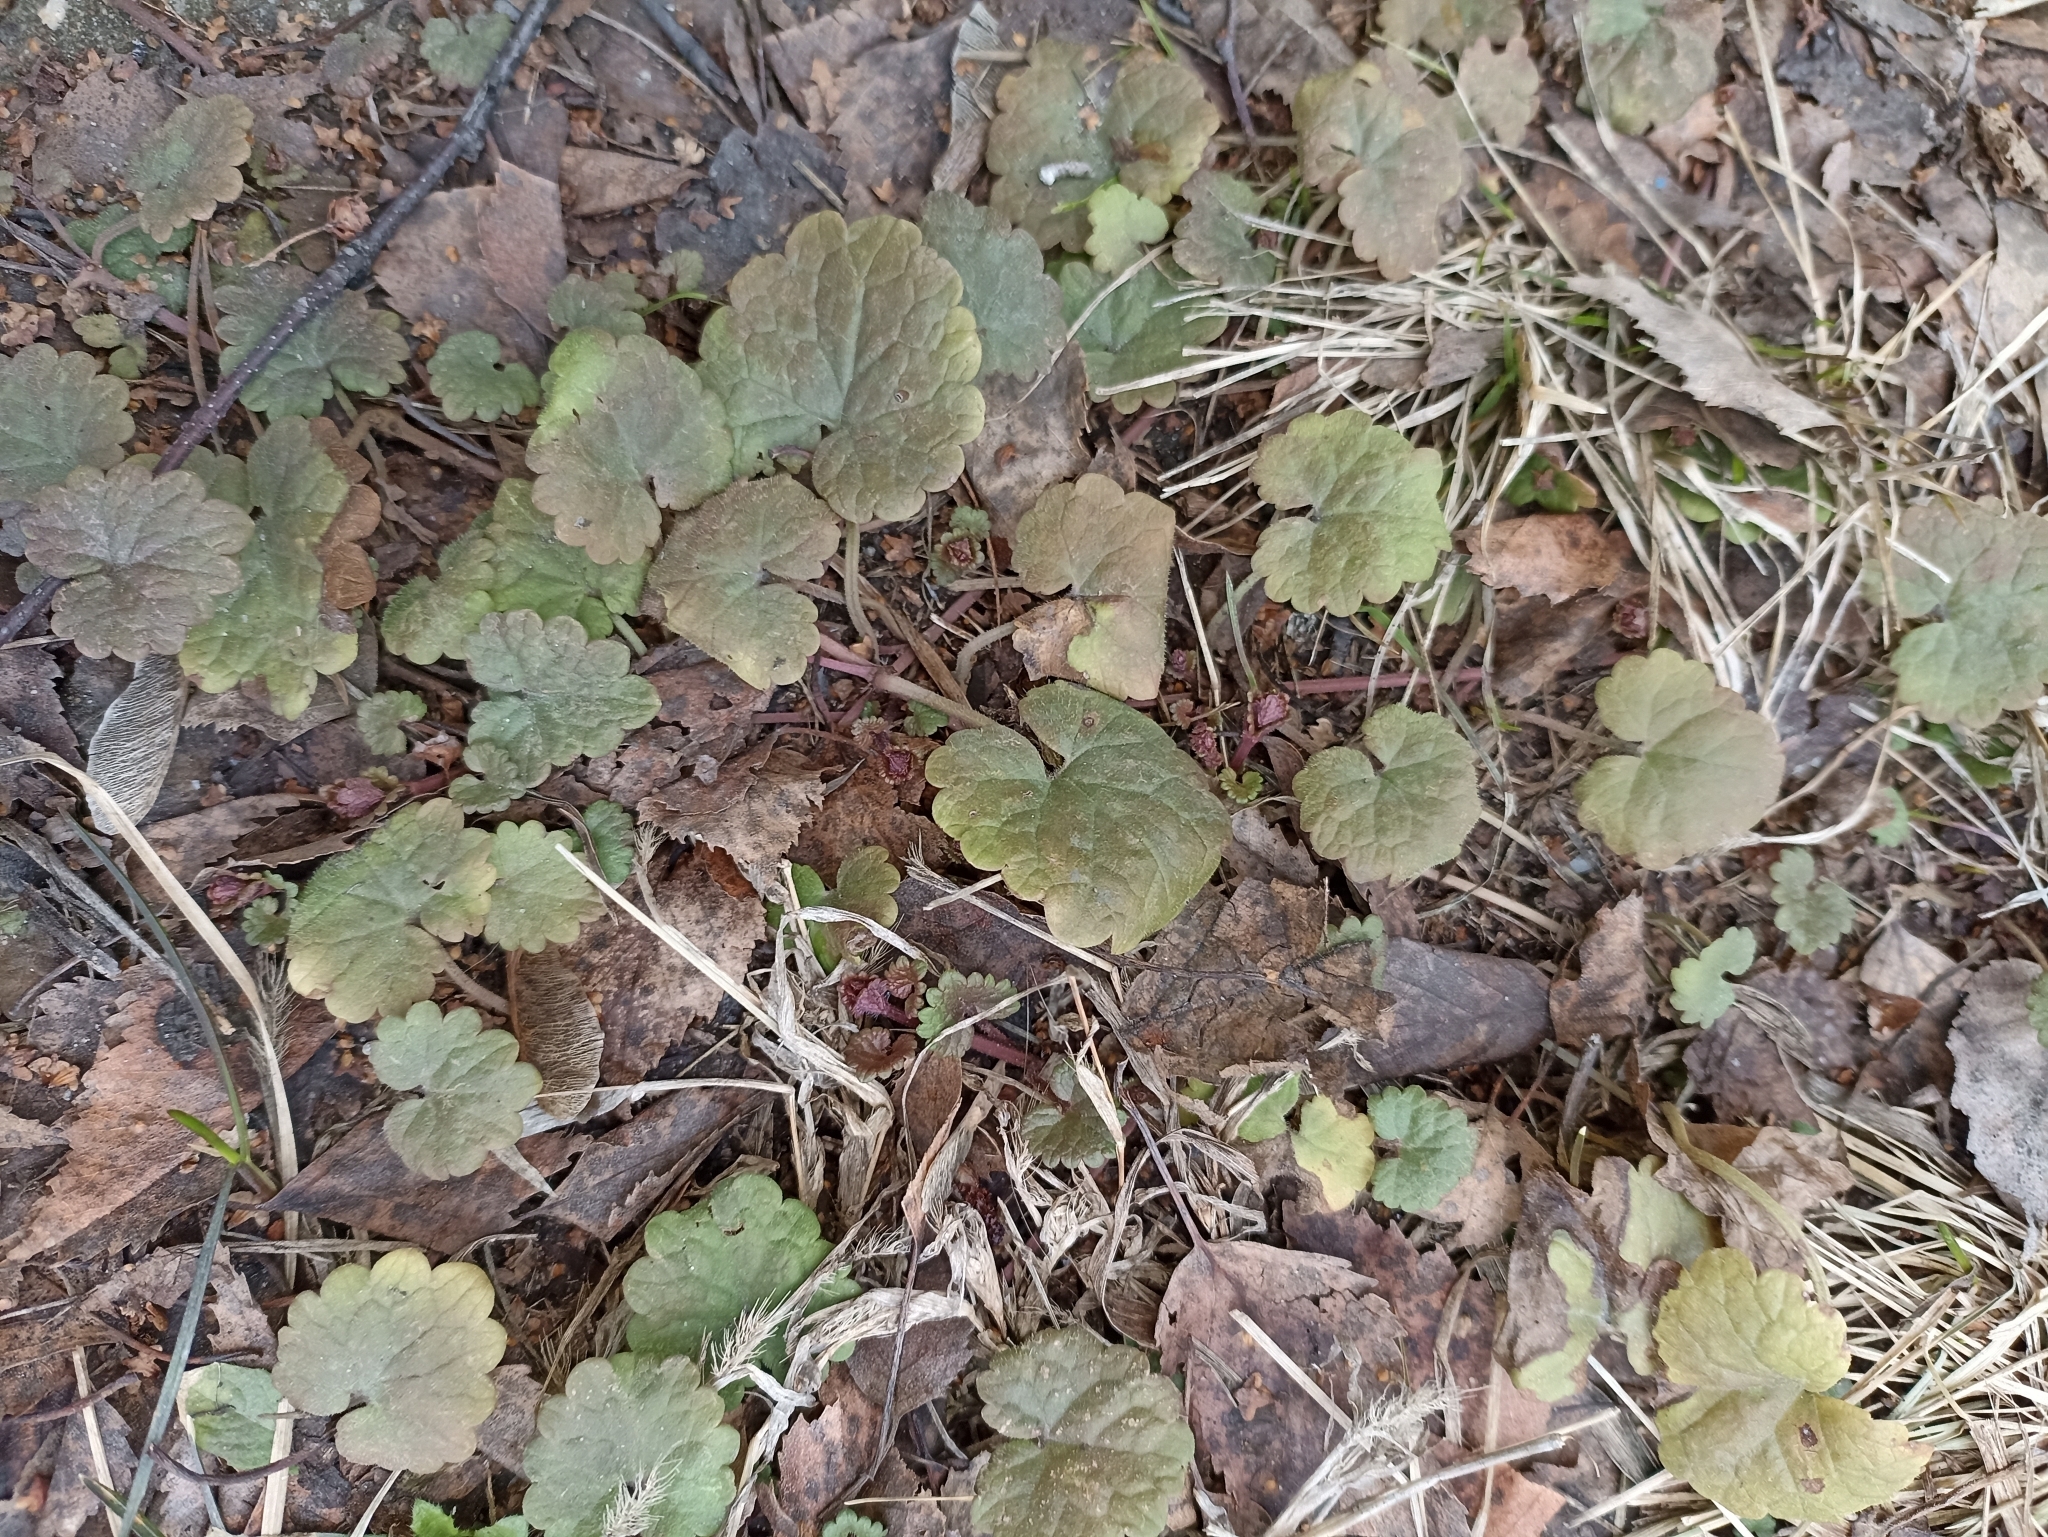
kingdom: Plantae
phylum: Tracheophyta
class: Magnoliopsida
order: Lamiales
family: Lamiaceae
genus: Glechoma
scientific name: Glechoma hederacea
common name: Ground ivy
